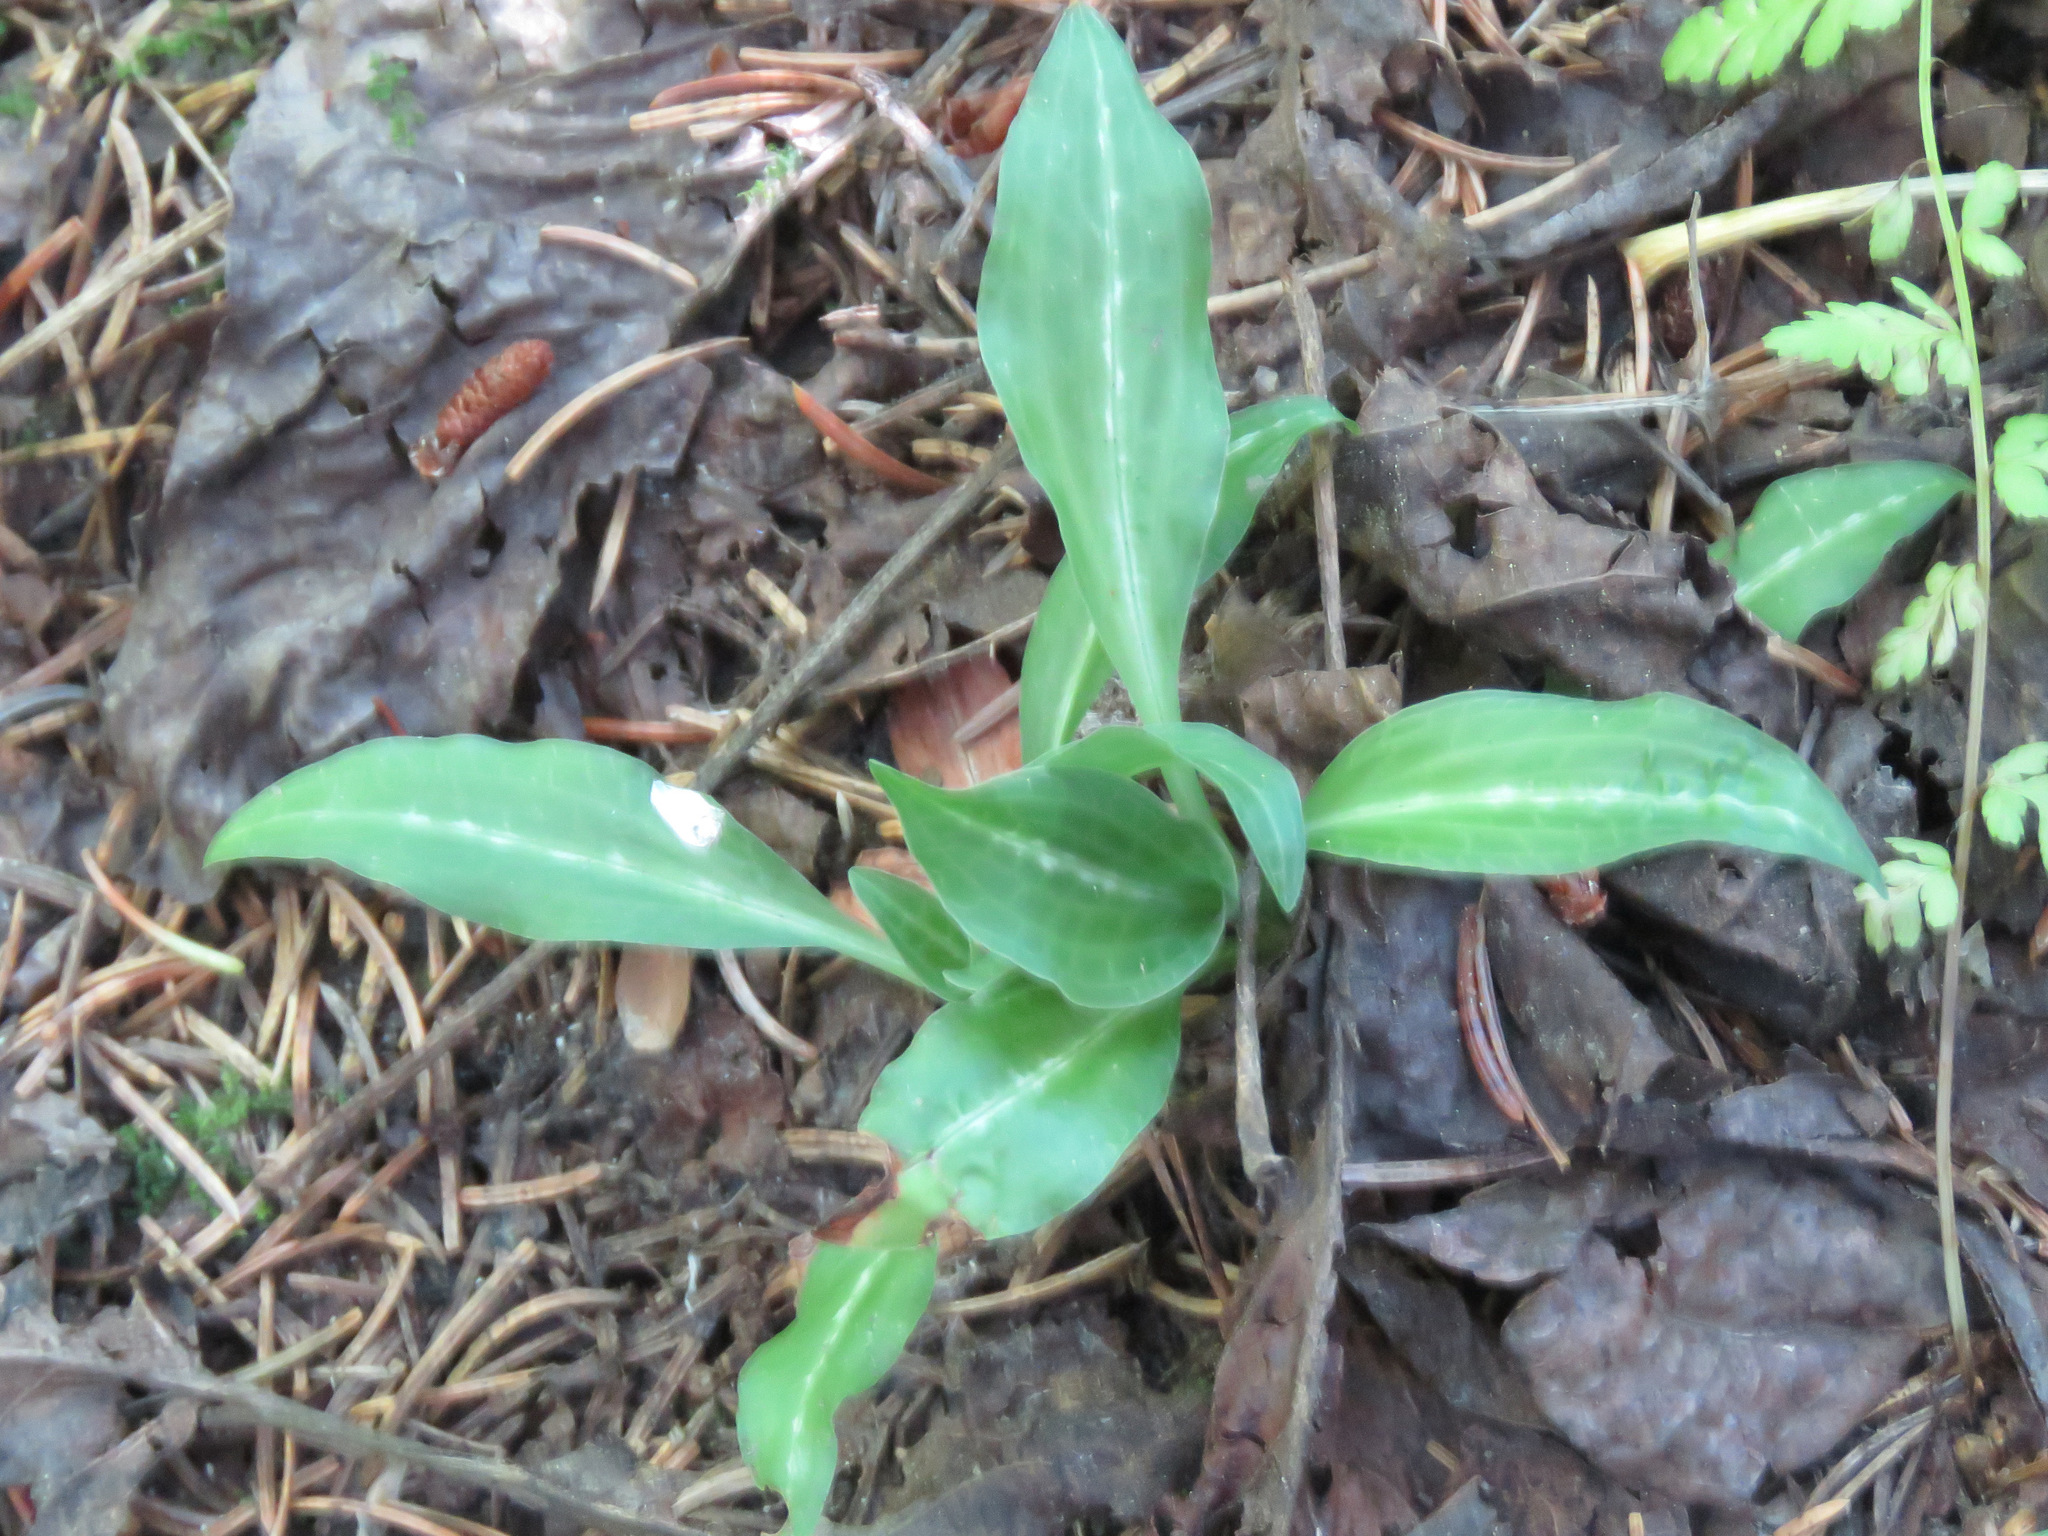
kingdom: Plantae
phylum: Tracheophyta
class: Liliopsida
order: Asparagales
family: Orchidaceae
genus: Goodyera
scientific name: Goodyera oblongifolia
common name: Giant rattlesnake-plantain
